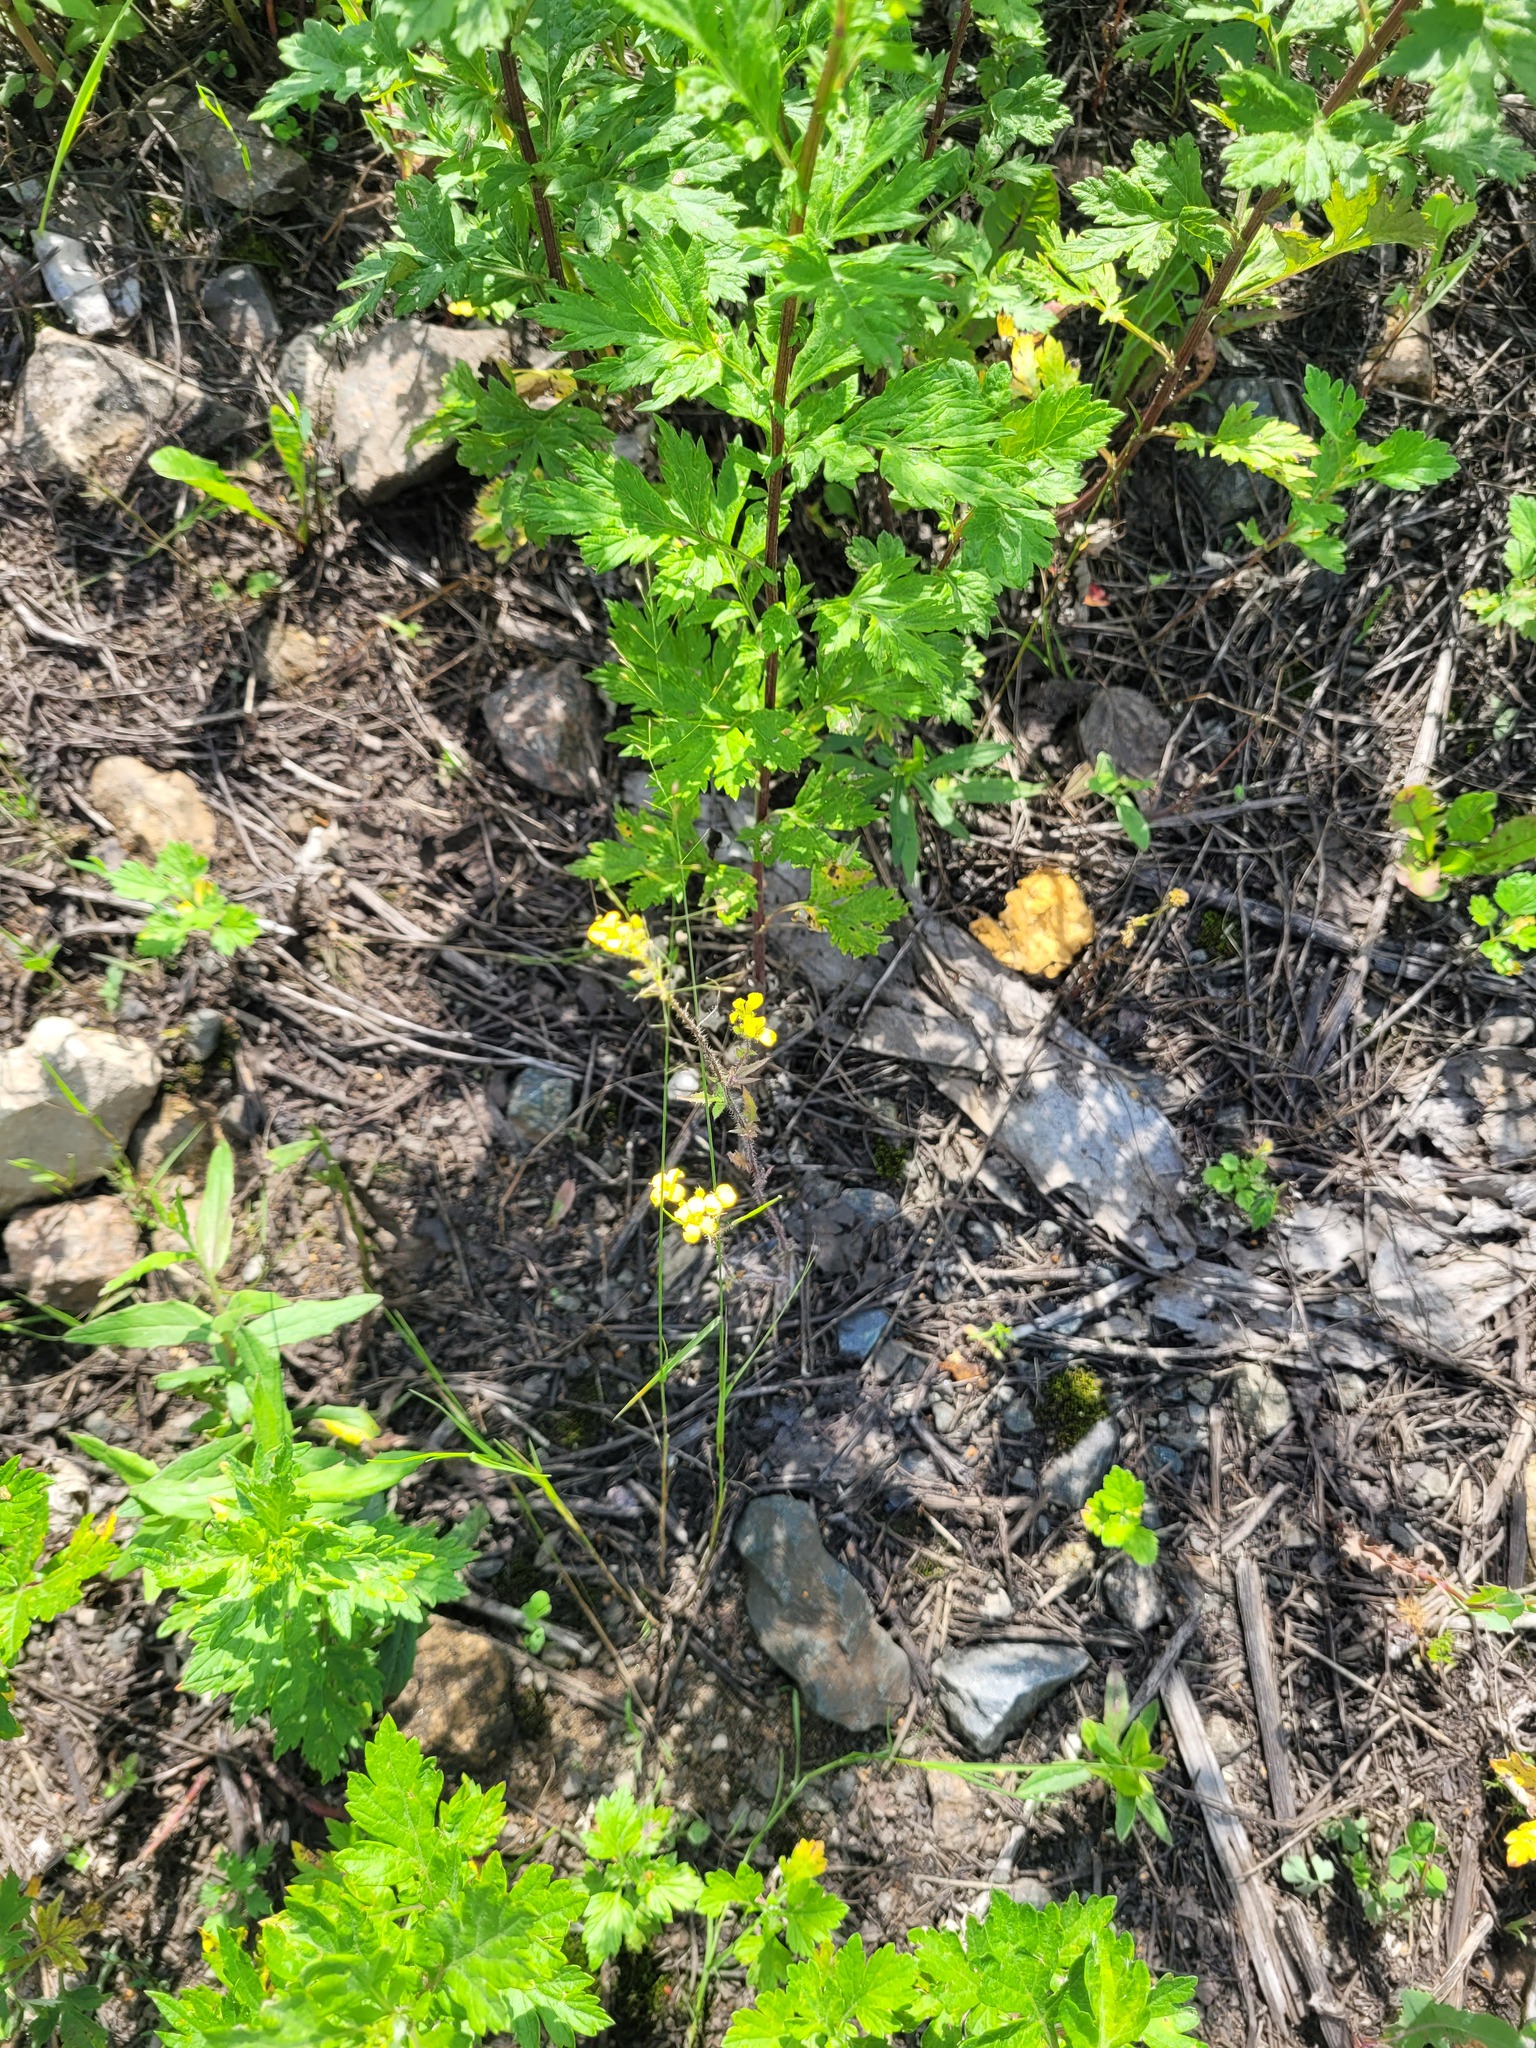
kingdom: Plantae
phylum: Tracheophyta
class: Magnoliopsida
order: Brassicales
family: Brassicaceae
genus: Sisymbrium
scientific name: Sisymbrium loeselii
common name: False london-rocket
